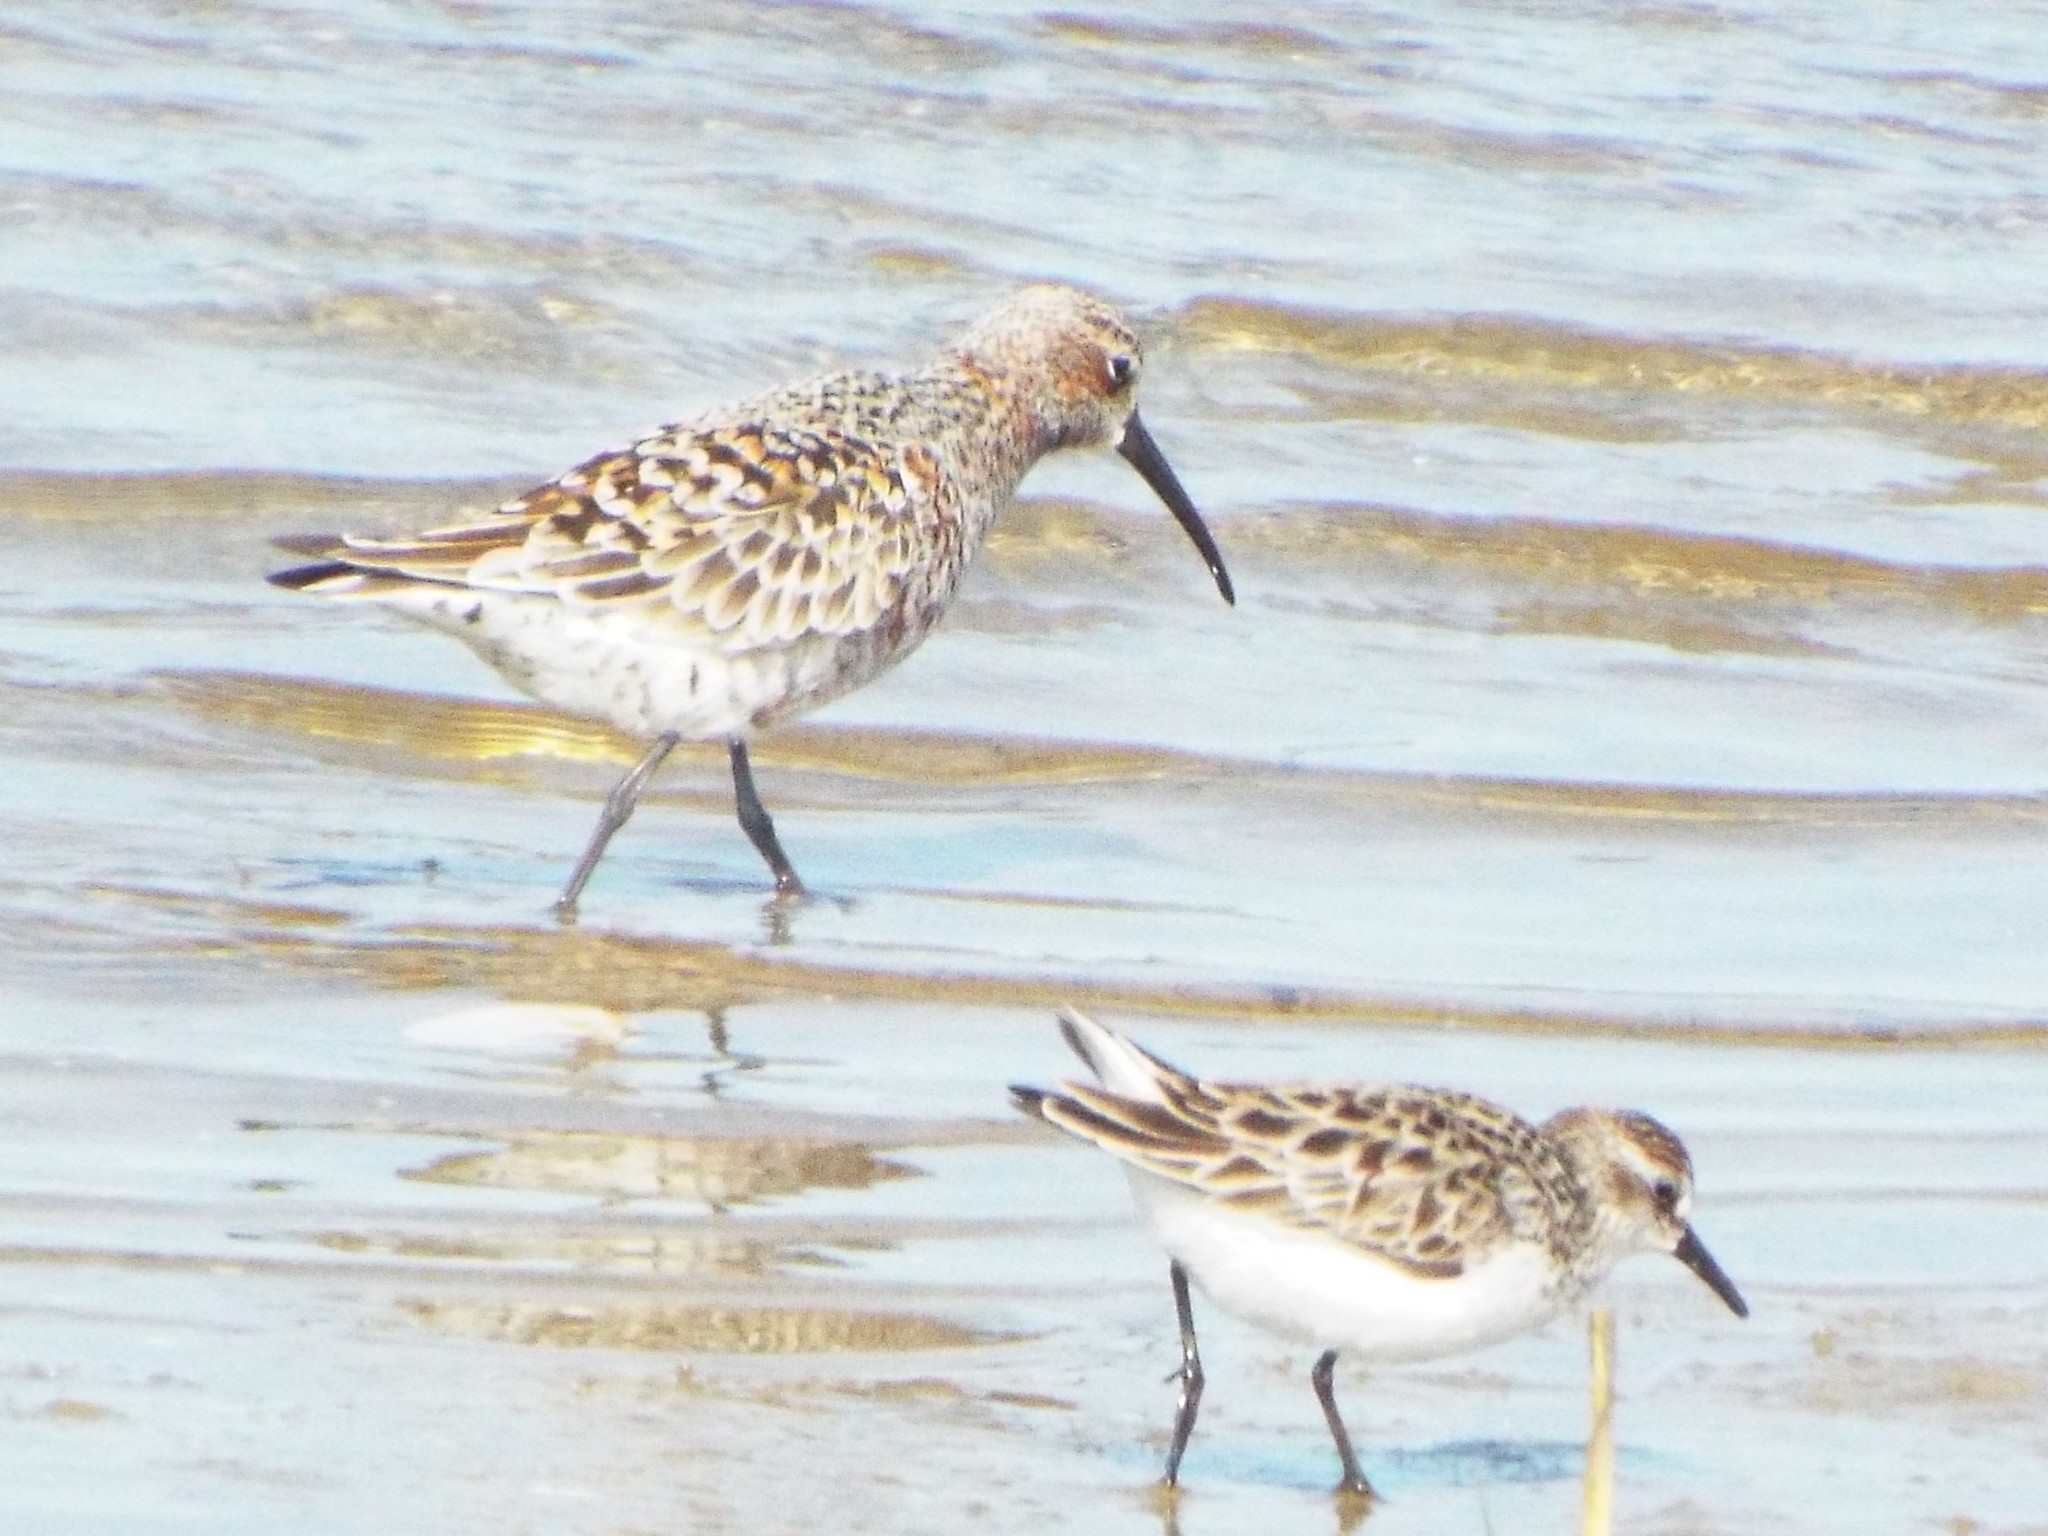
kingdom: Animalia
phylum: Chordata
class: Aves
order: Charadriiformes
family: Scolopacidae
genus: Calidris
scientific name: Calidris ferruginea
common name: Curlew sandpiper
